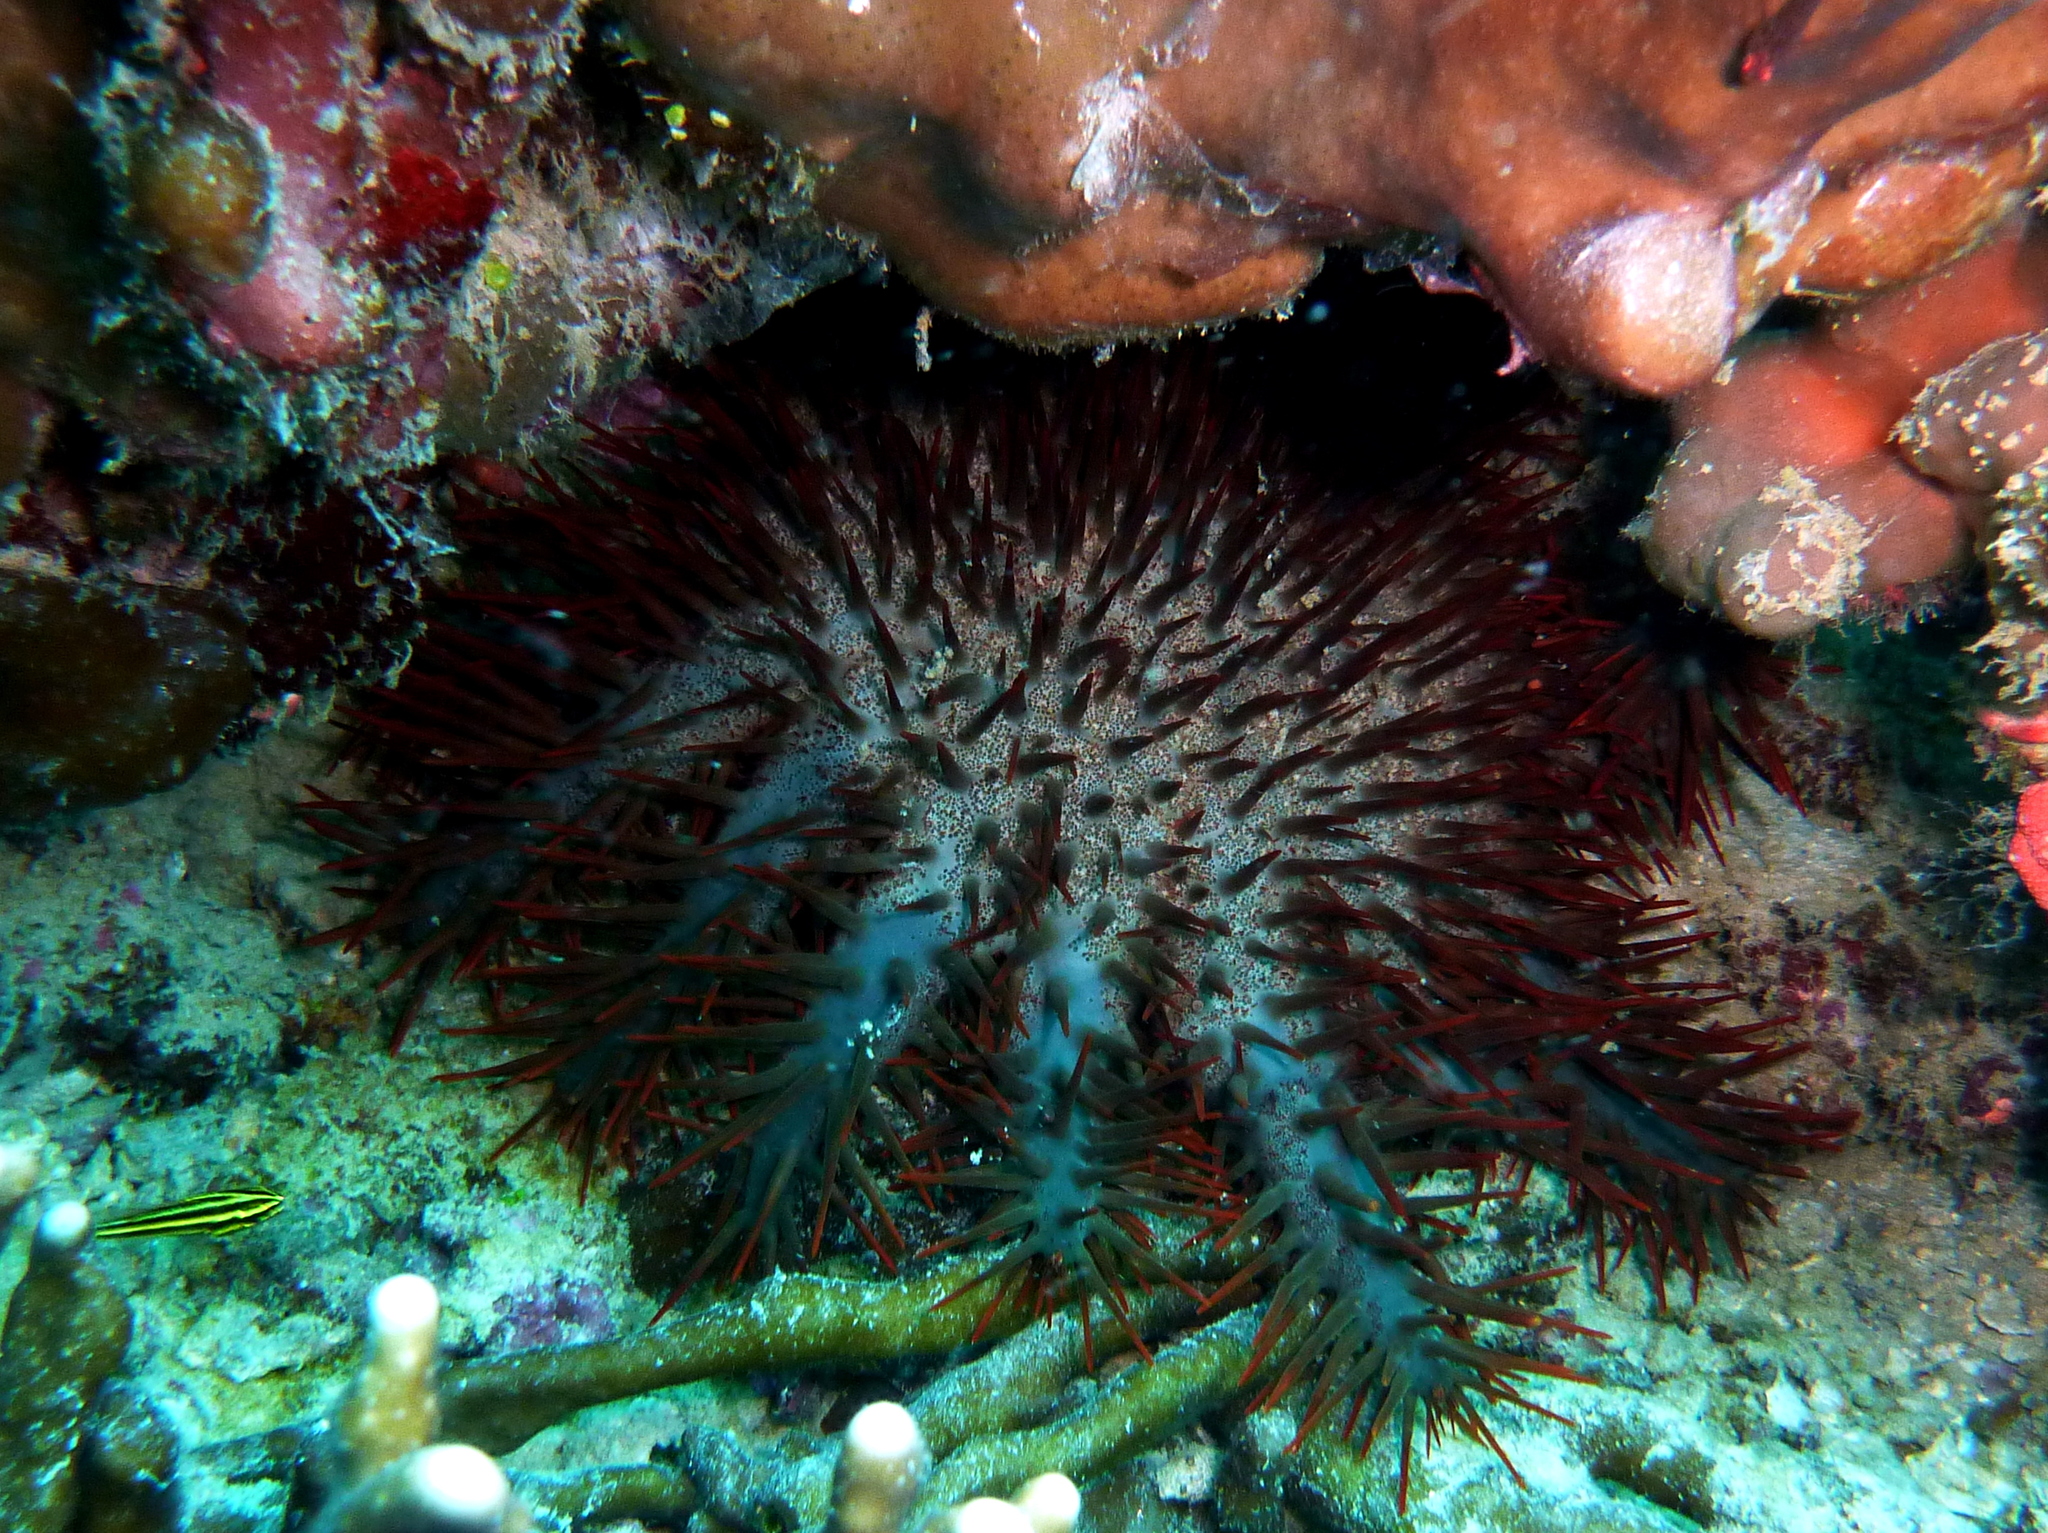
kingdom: Animalia
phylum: Echinodermata
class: Asteroidea
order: Valvatida
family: Acanthasteridae
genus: Acanthaster
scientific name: Acanthaster planci
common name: Crown-of-thorns
